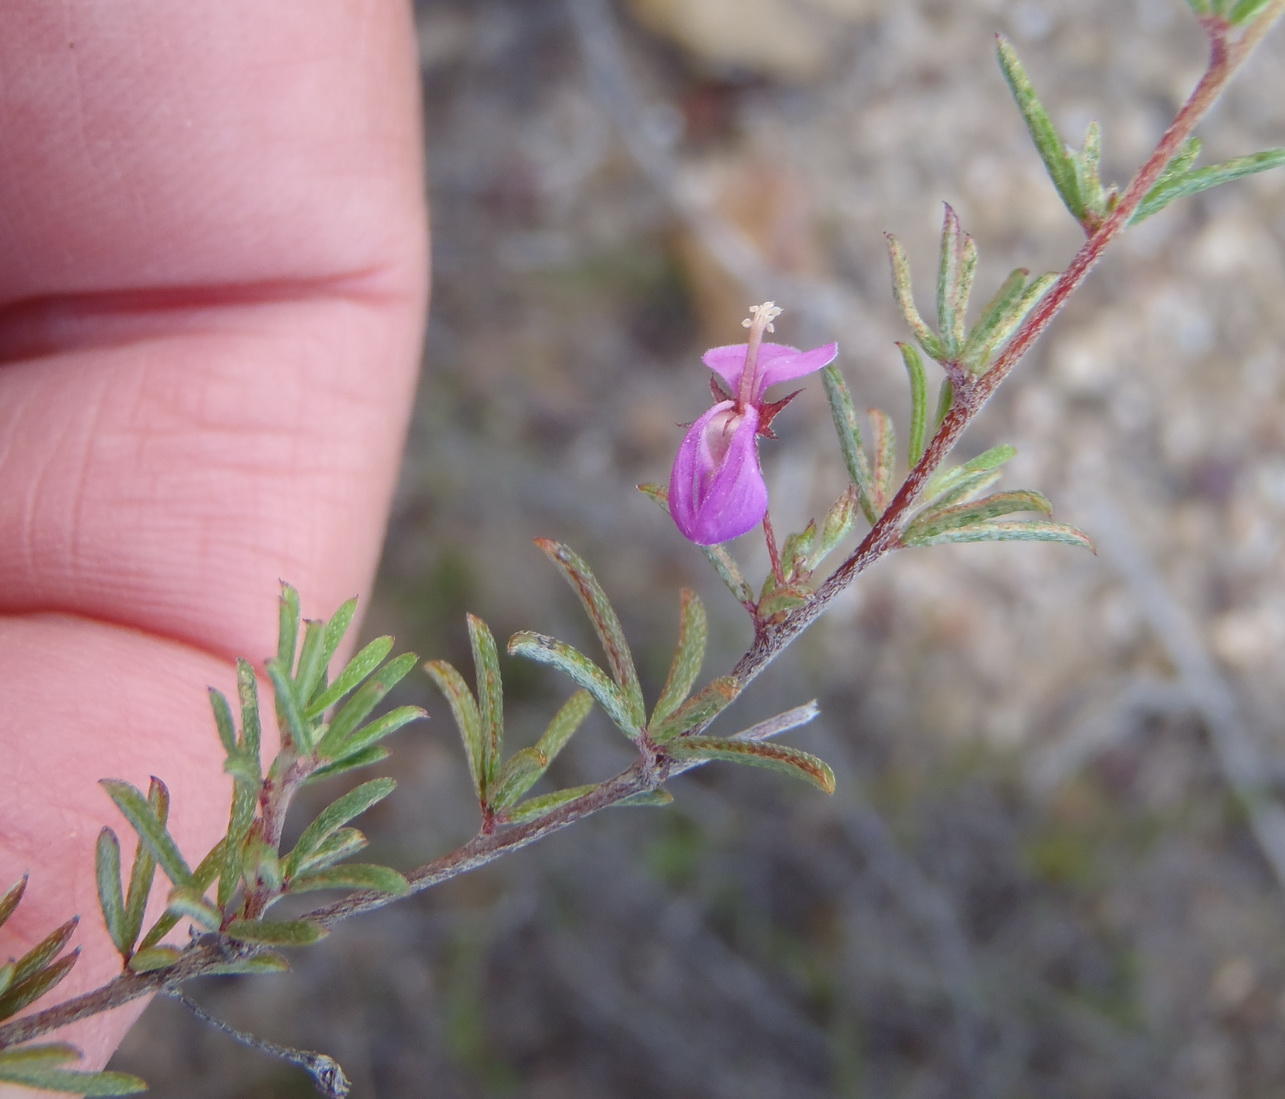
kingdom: Plantae
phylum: Tracheophyta
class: Magnoliopsida
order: Fabales
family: Fabaceae
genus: Indigofera
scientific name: Indigofera setosa
